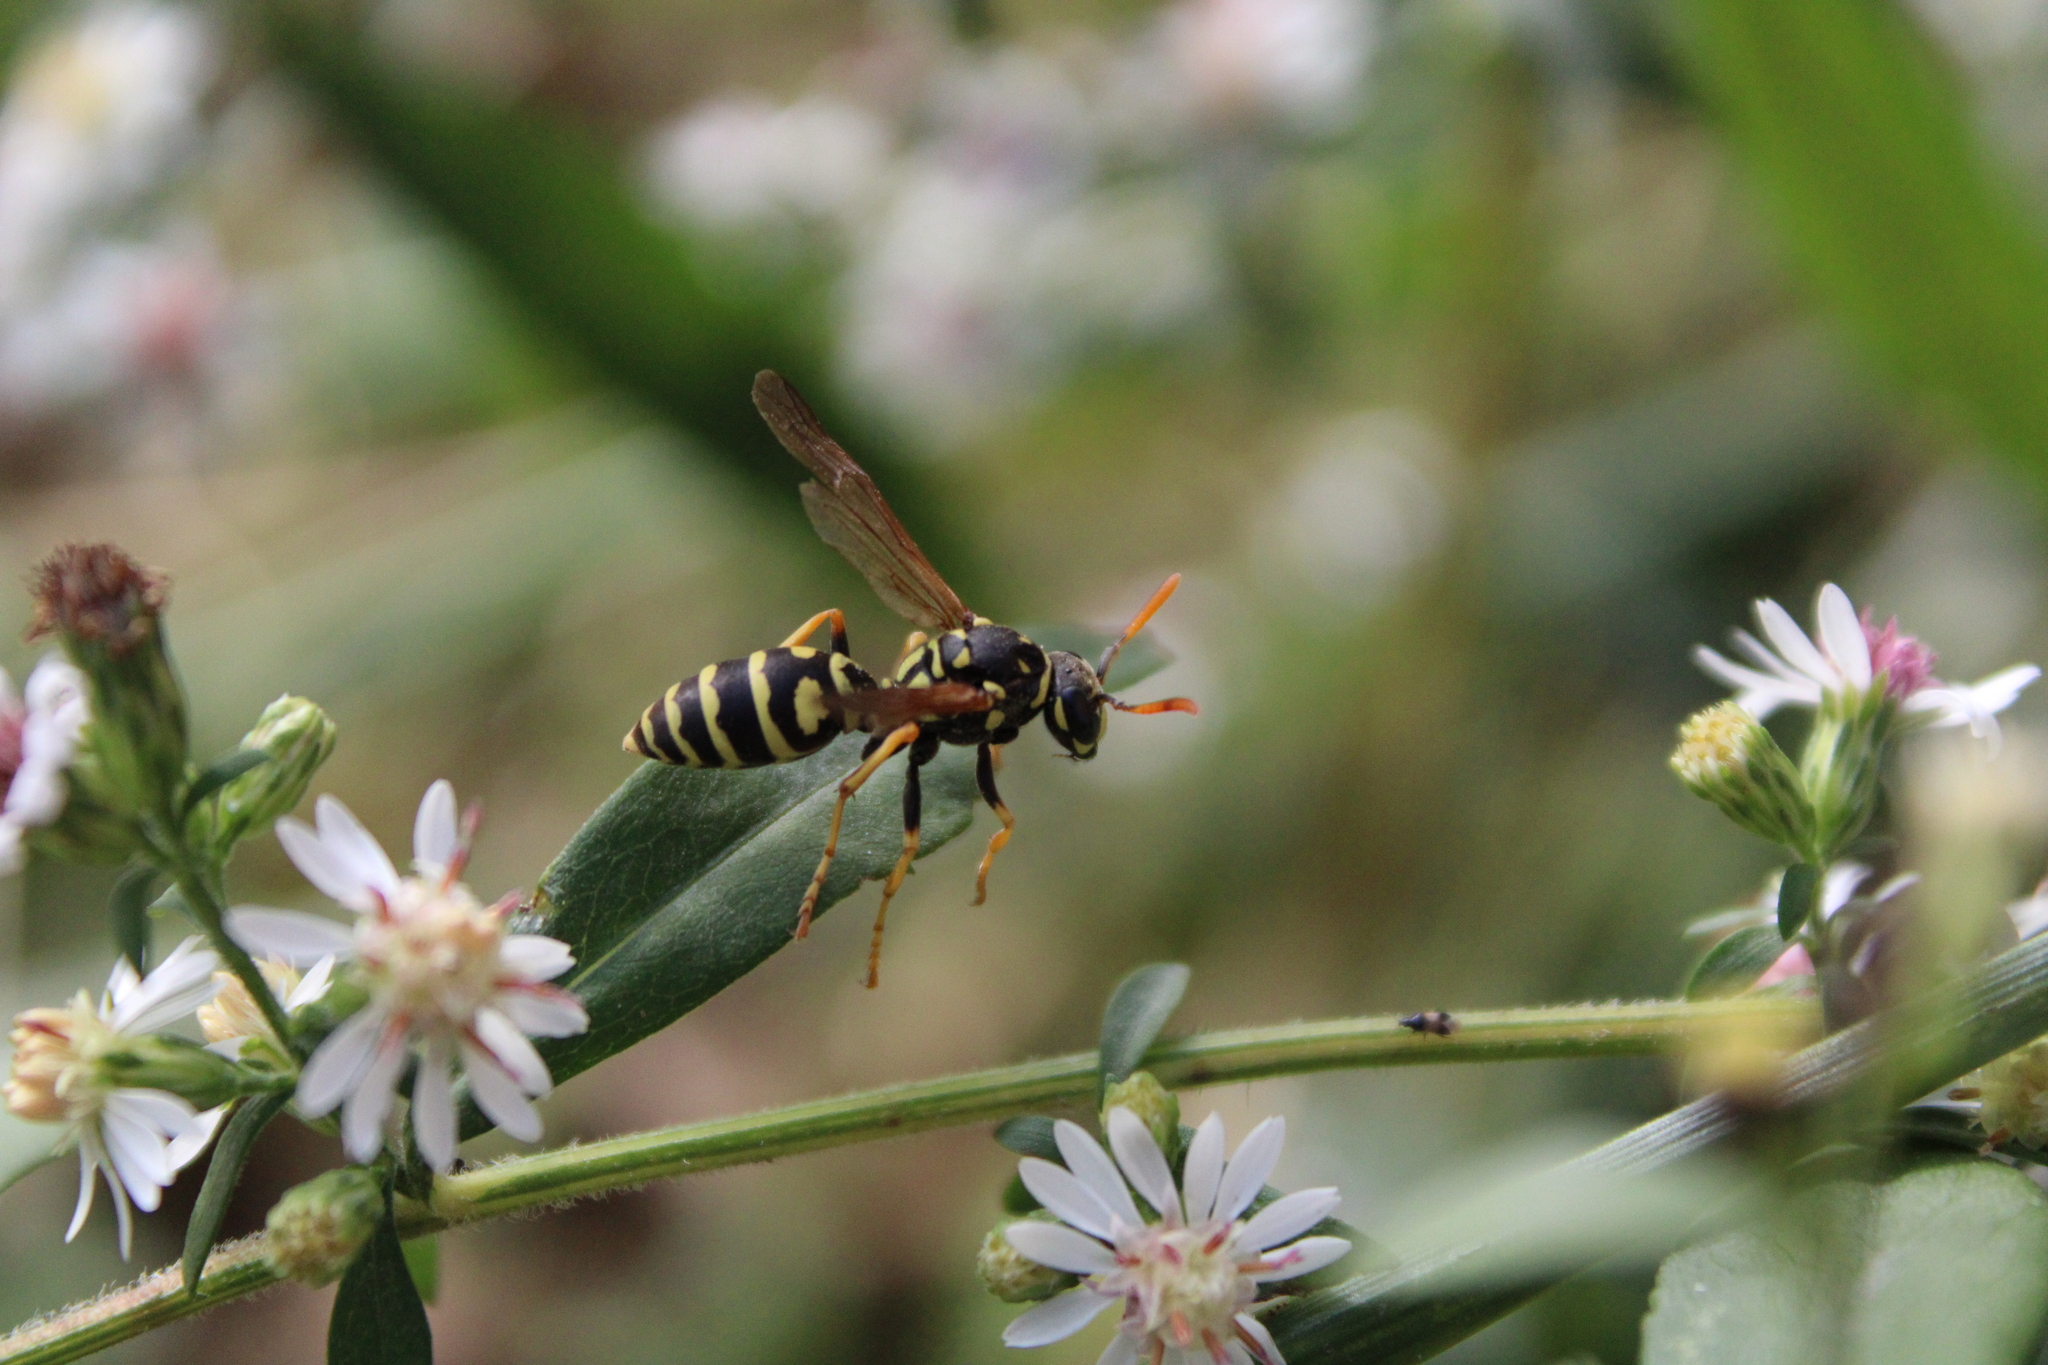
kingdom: Animalia
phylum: Arthropoda
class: Insecta
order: Hymenoptera
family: Eumenidae
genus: Polistes
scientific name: Polistes dominula
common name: Paper wasp
